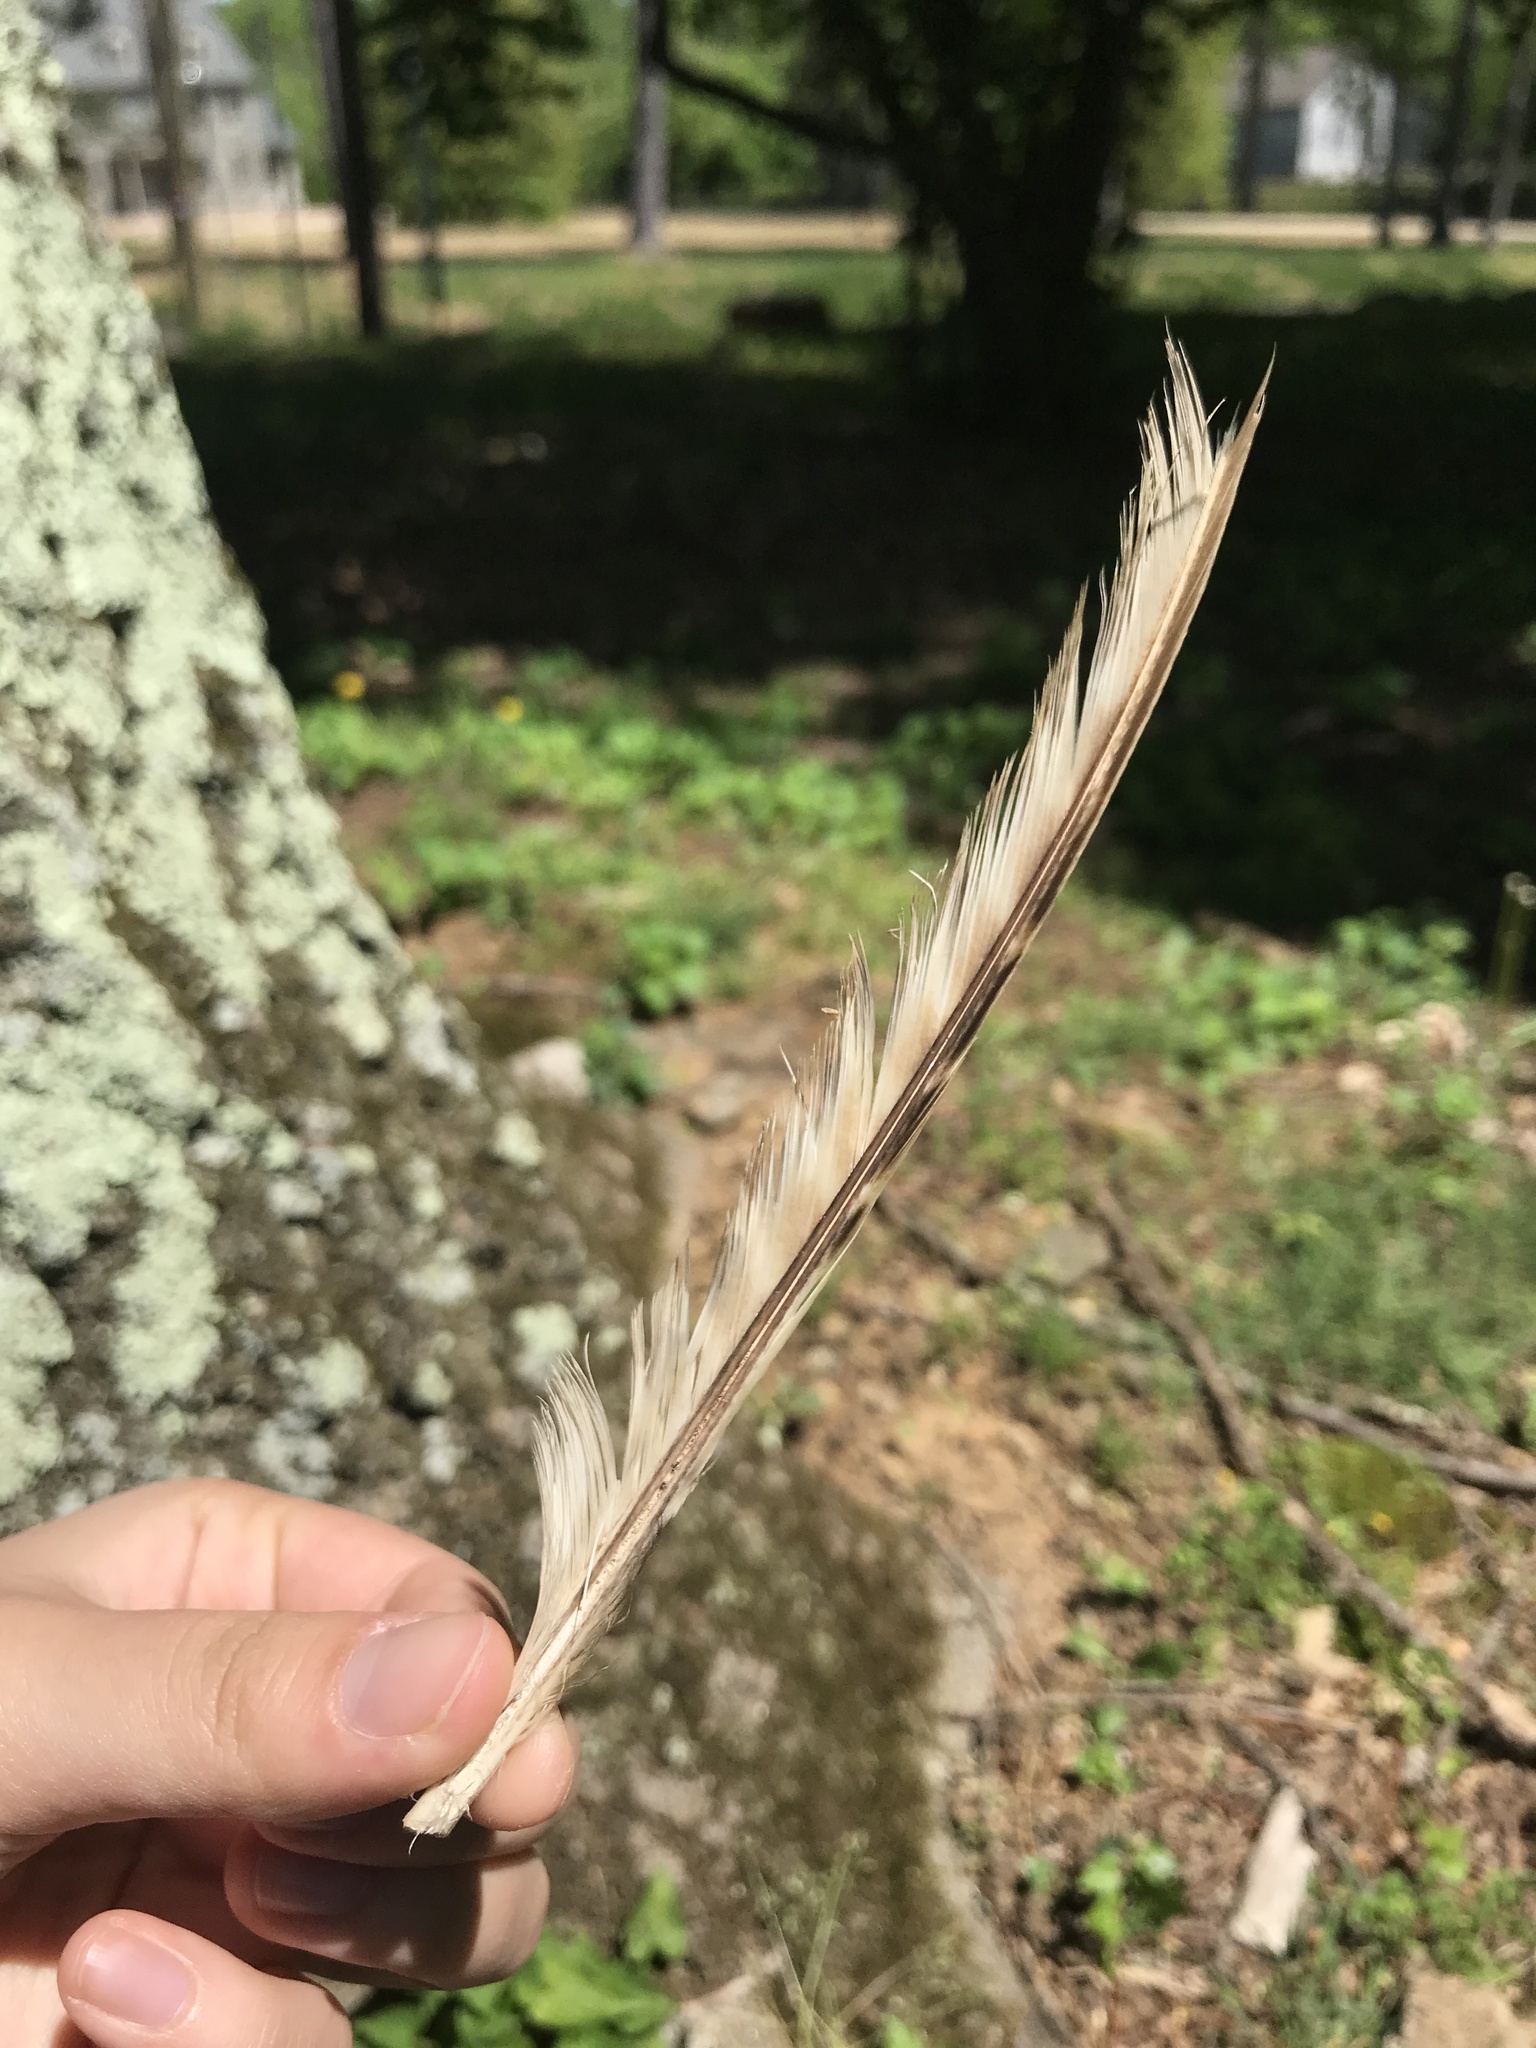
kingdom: Animalia
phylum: Chordata
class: Aves
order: Galliformes
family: Phasianidae
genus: Phasianus
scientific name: Phasianus colchicus
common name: Common pheasant
